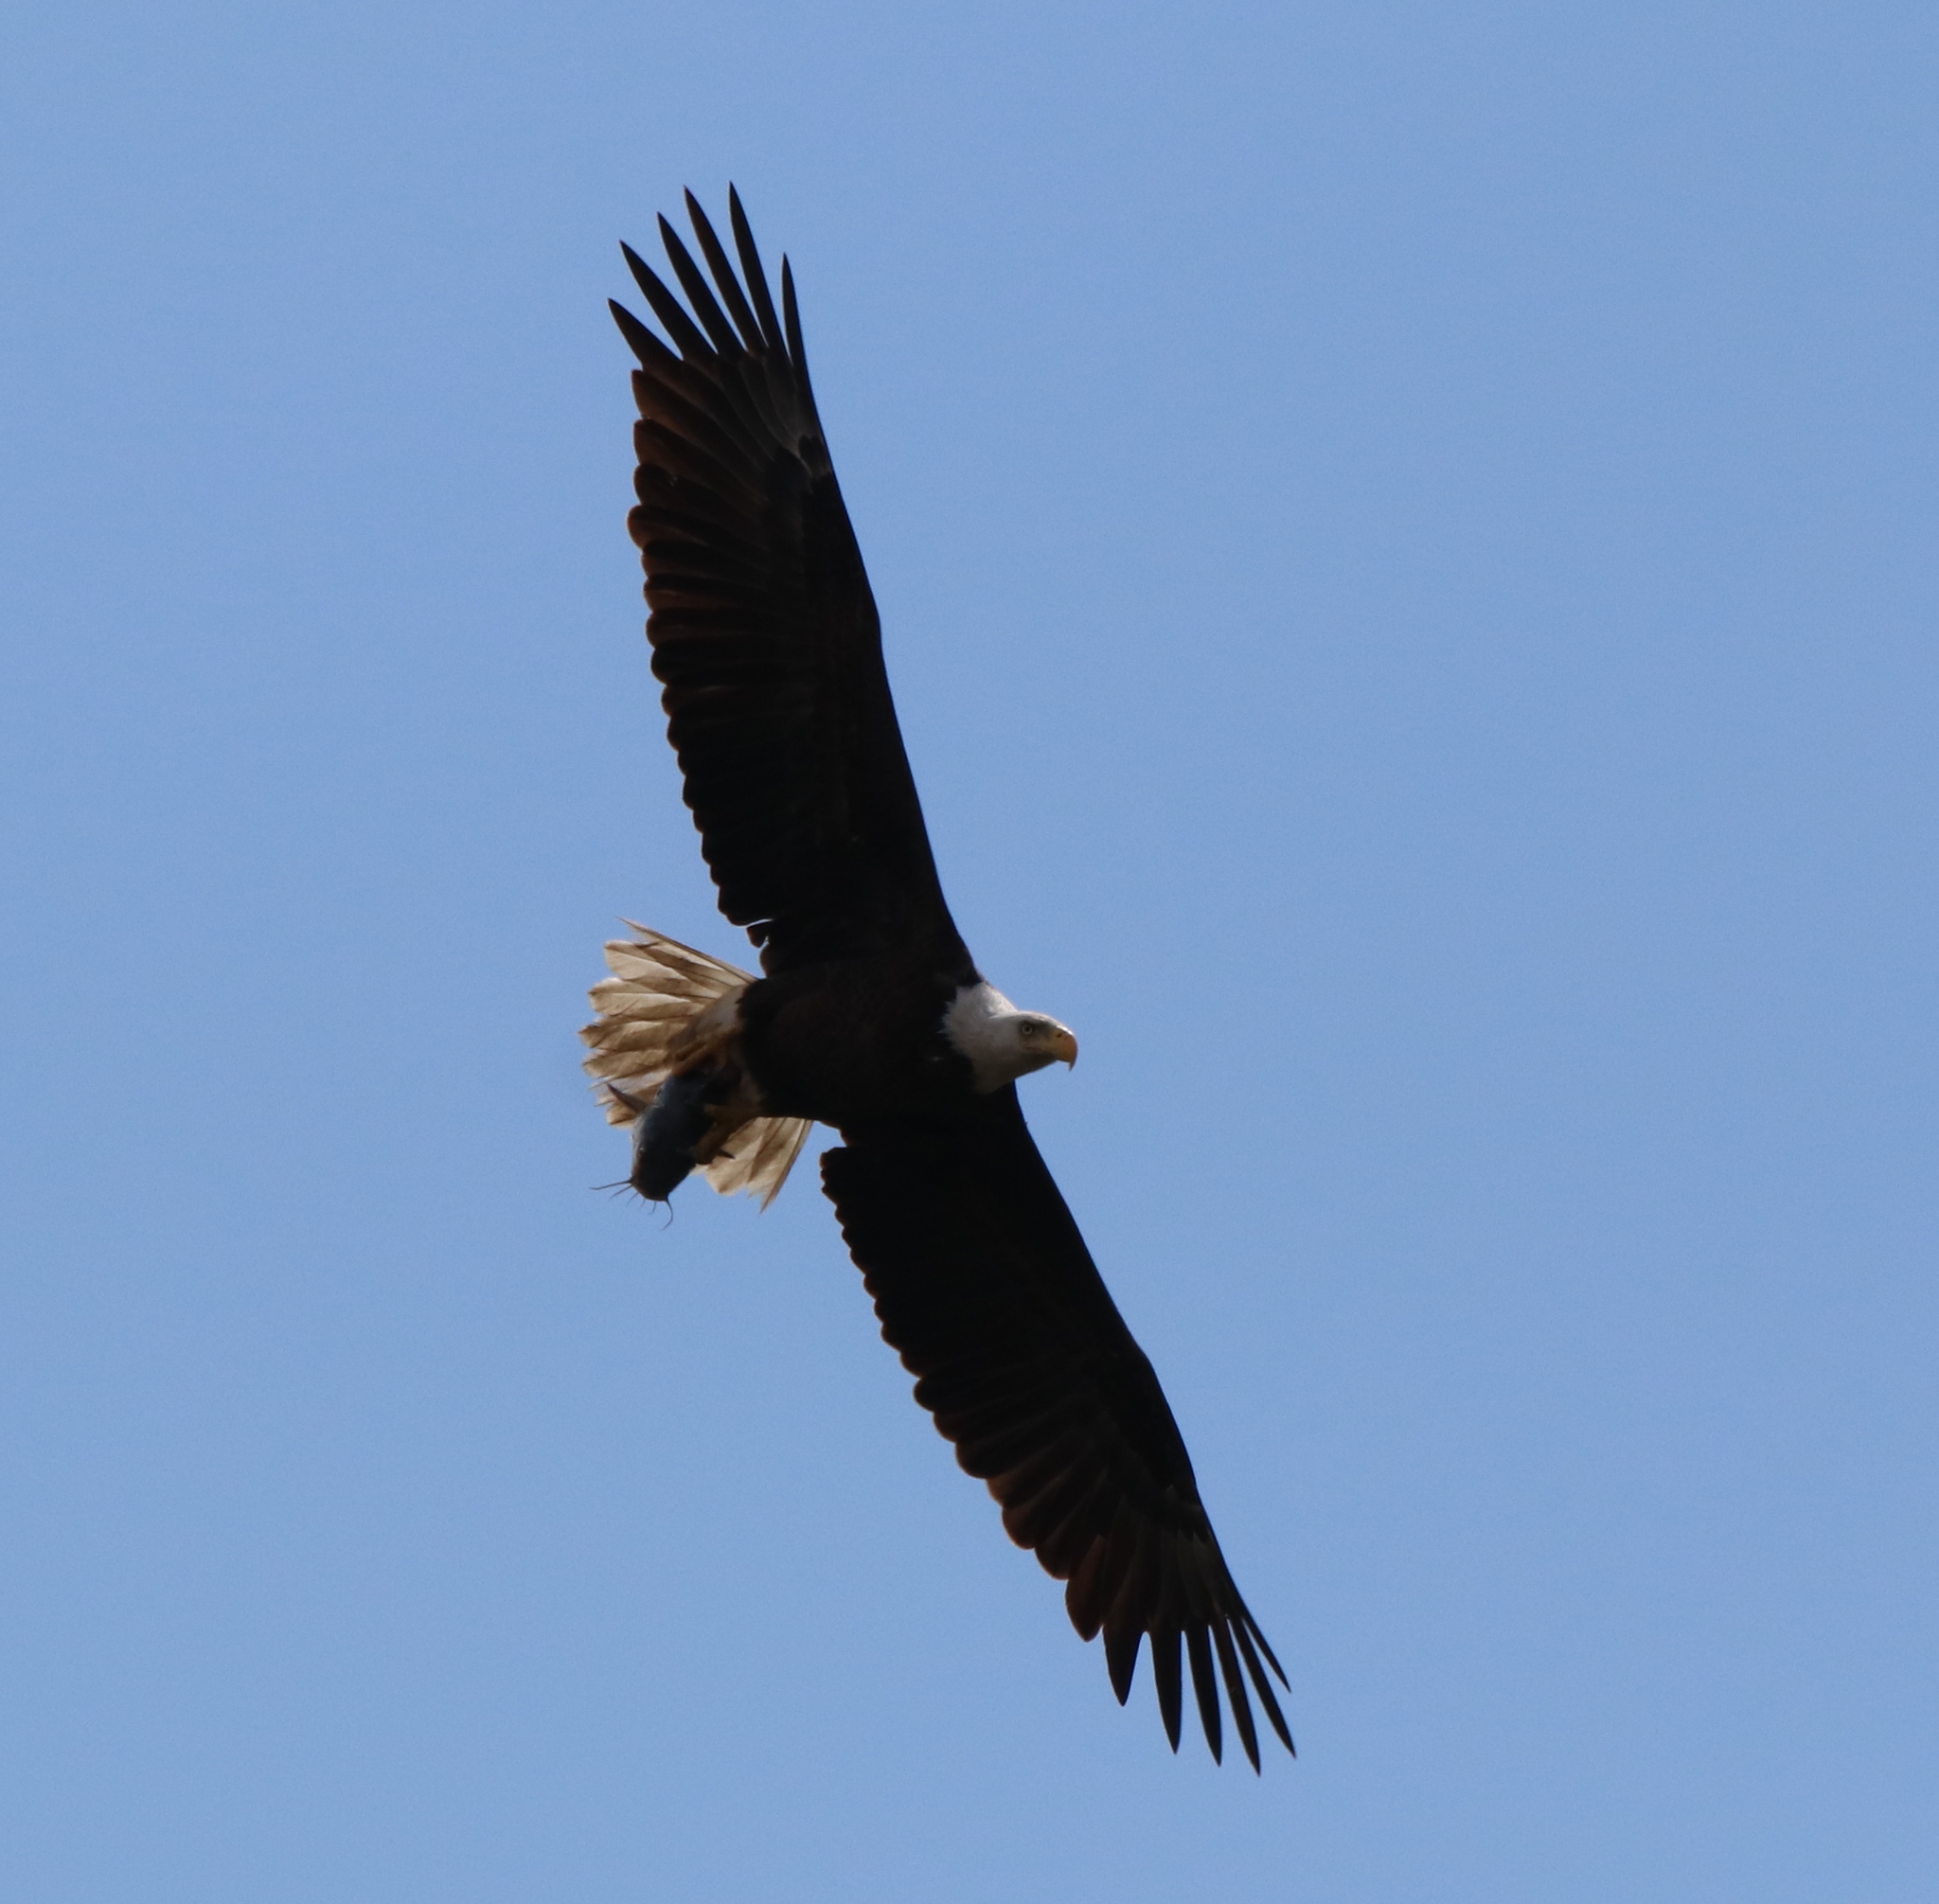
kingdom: Animalia
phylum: Chordata
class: Aves
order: Accipitriformes
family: Accipitridae
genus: Haliaeetus
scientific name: Haliaeetus leucocephalus
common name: Bald eagle
